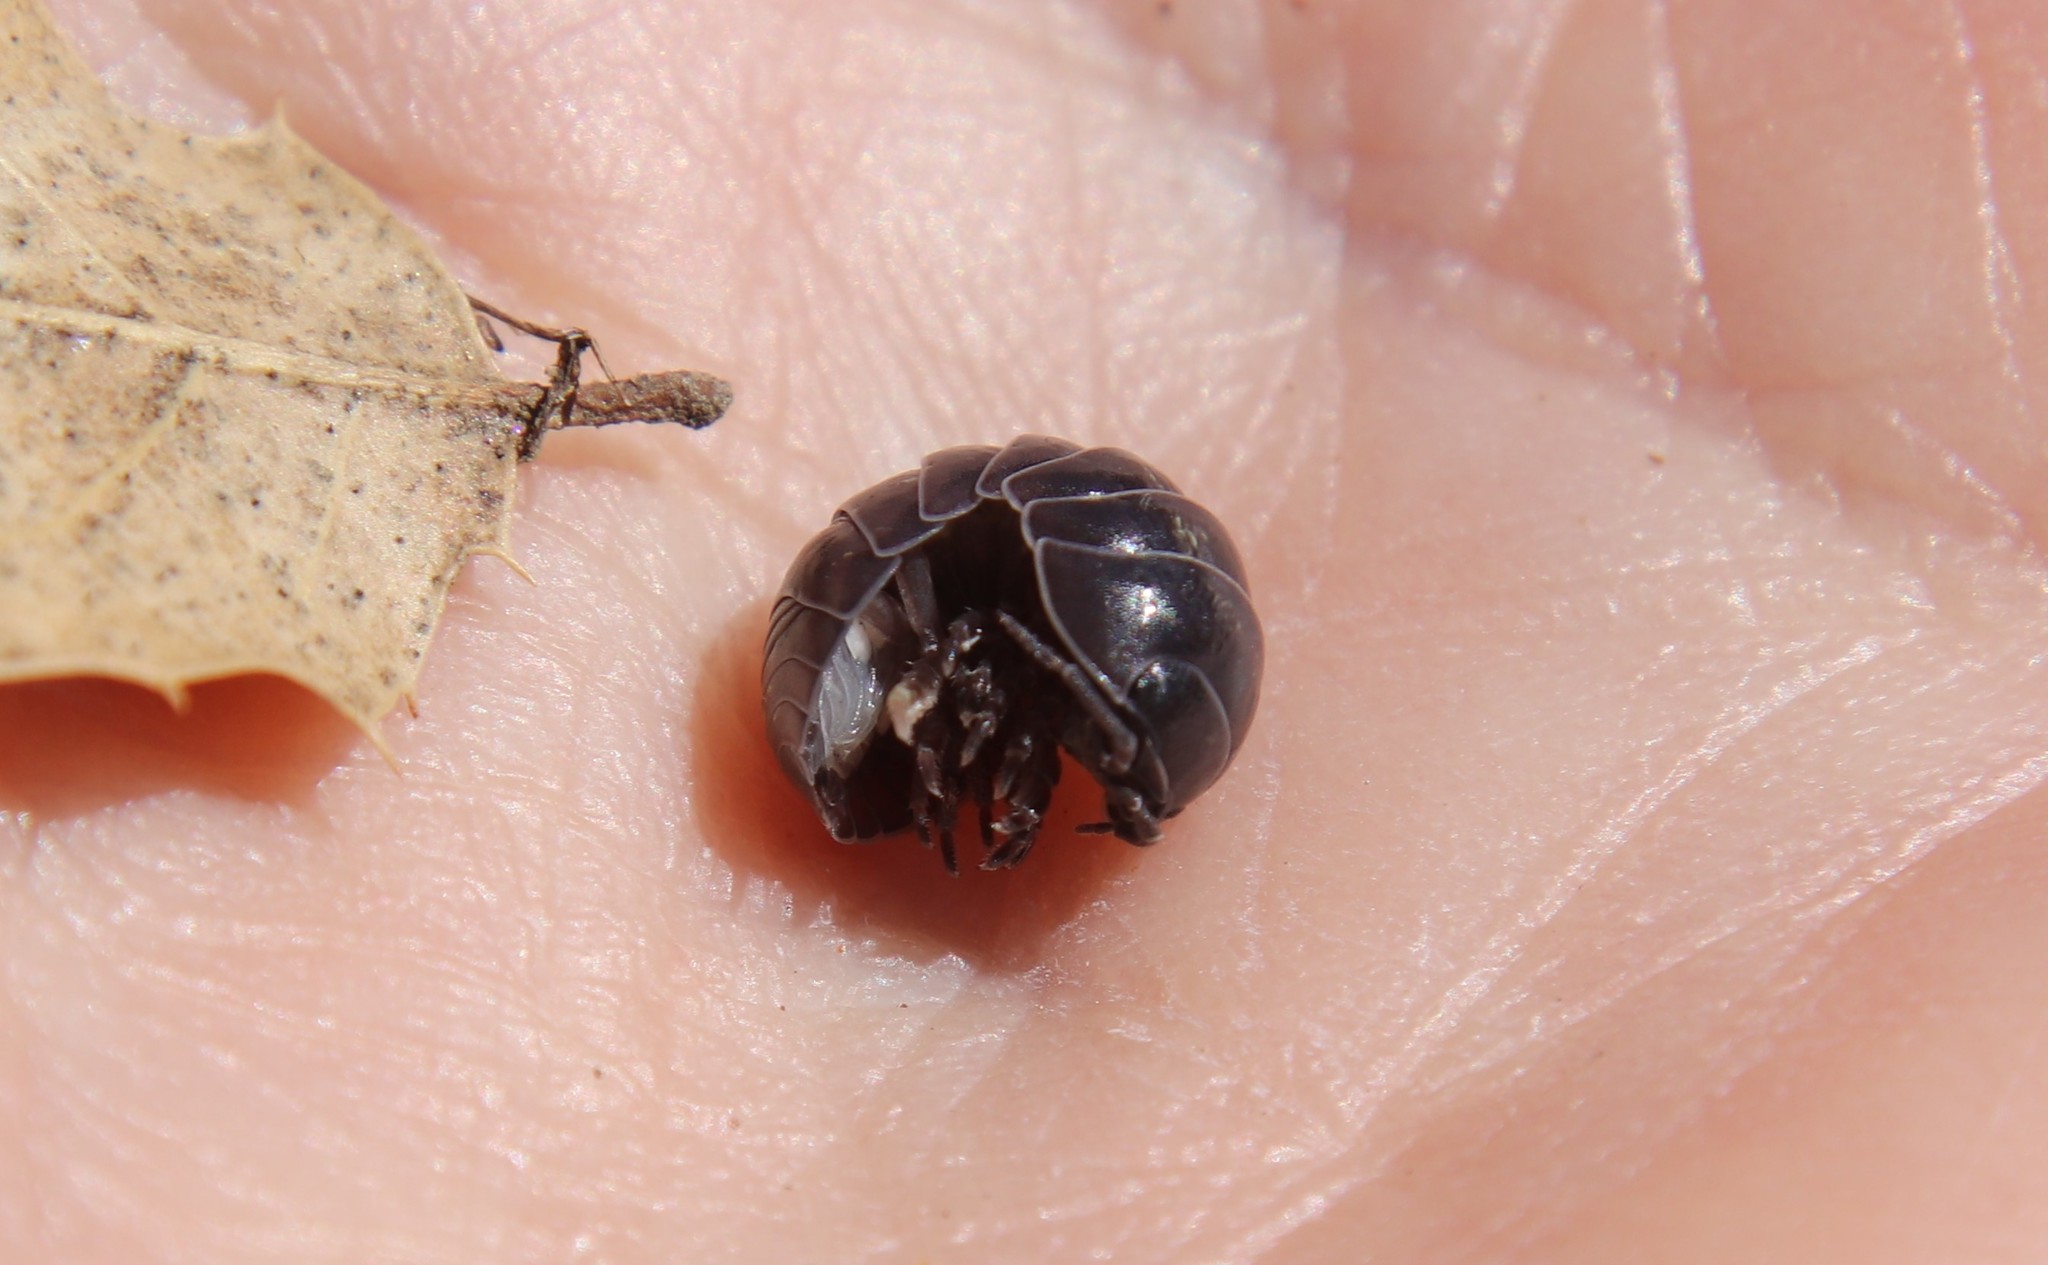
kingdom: Animalia
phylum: Arthropoda
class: Malacostraca
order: Isopoda
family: Armadillidiidae
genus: Armadillidium
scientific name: Armadillidium vulgare
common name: Common pill woodlouse
